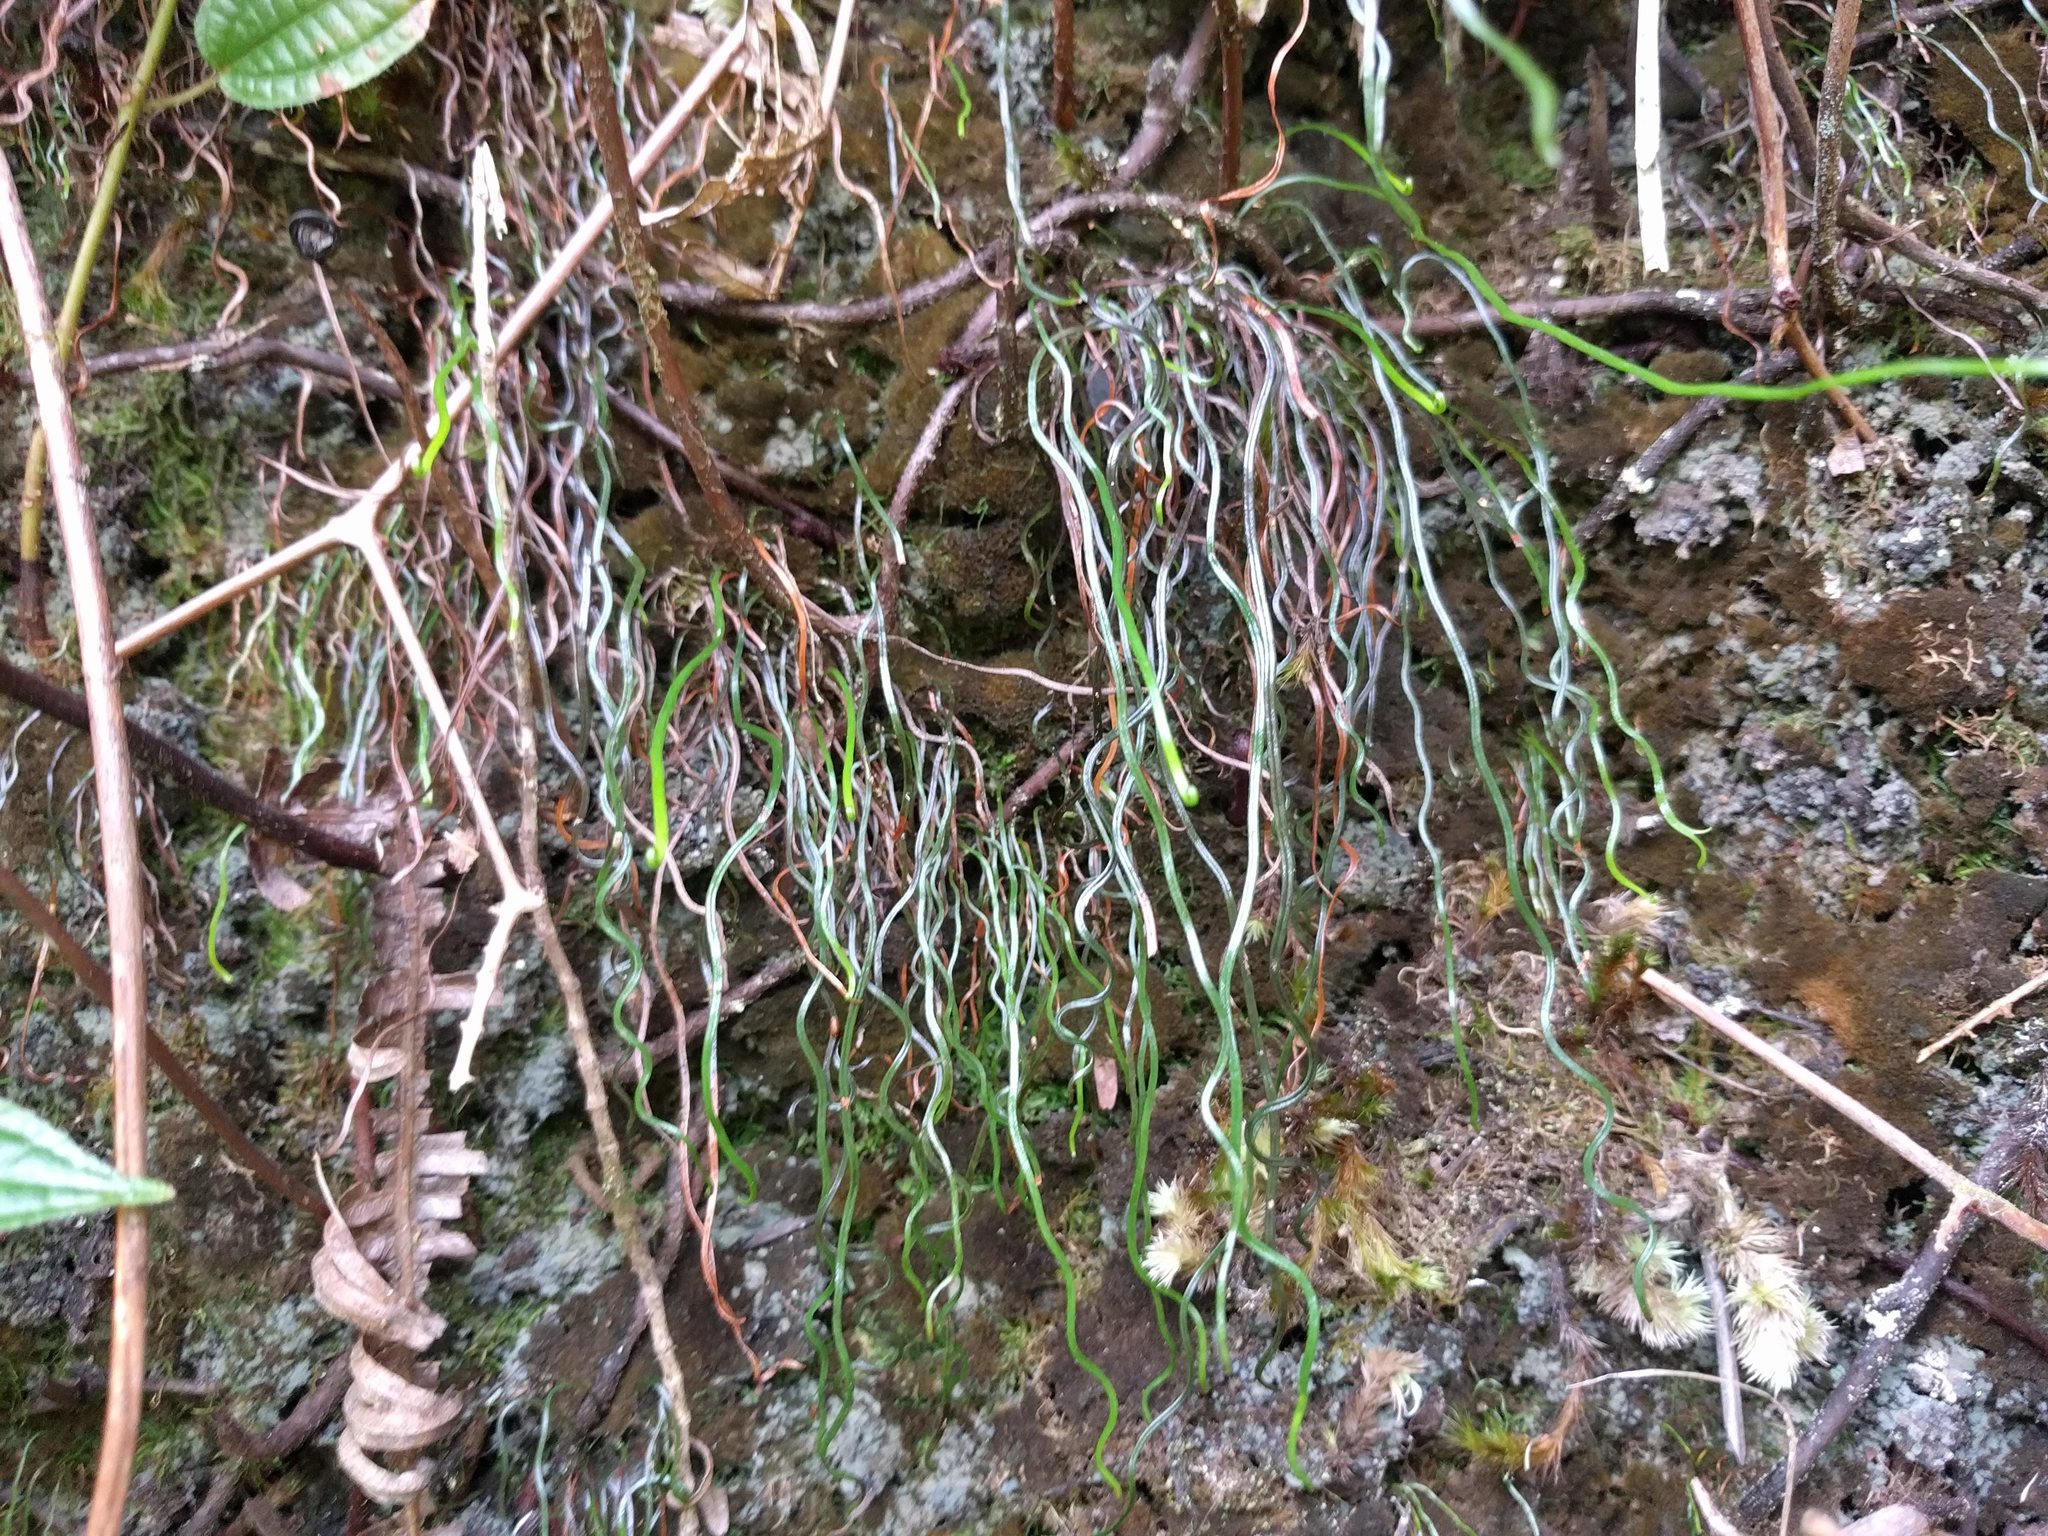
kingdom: Plantae
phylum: Tracheophyta
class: Polypodiopsida
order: Schizaeales
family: Schizaeaceae
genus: Microschizaea
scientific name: Microschizaea robusta
